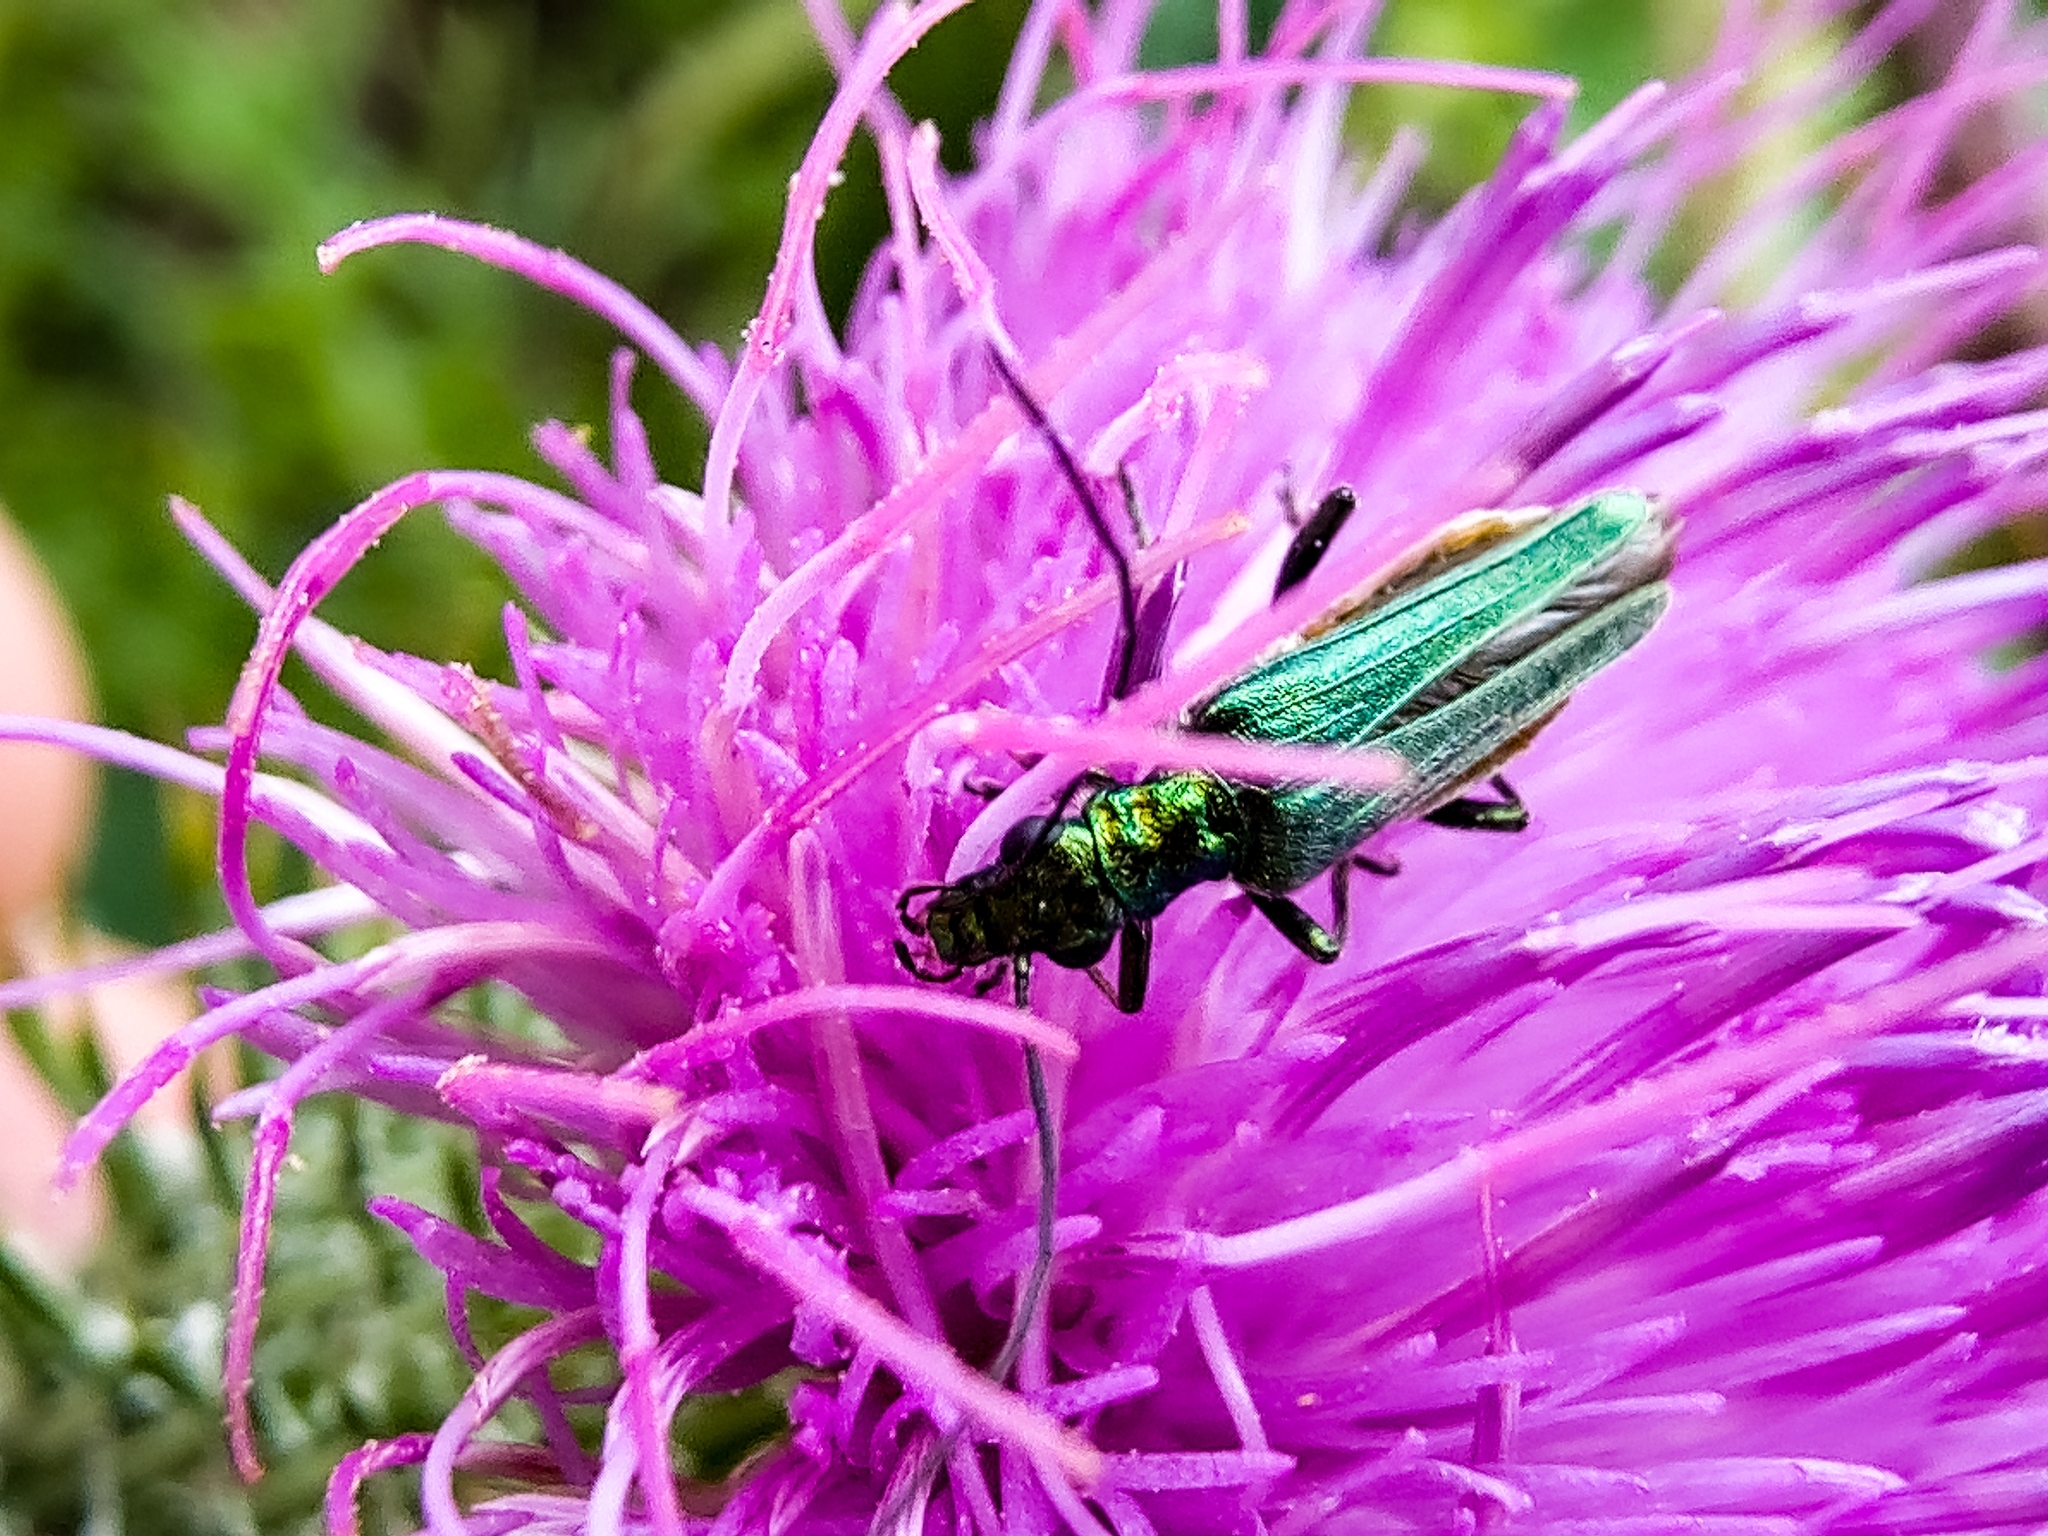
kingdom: Animalia
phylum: Arthropoda
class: Insecta
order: Coleoptera
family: Oedemeridae
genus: Oedemera
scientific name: Oedemera nobilis
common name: Swollen-thighed beetle
